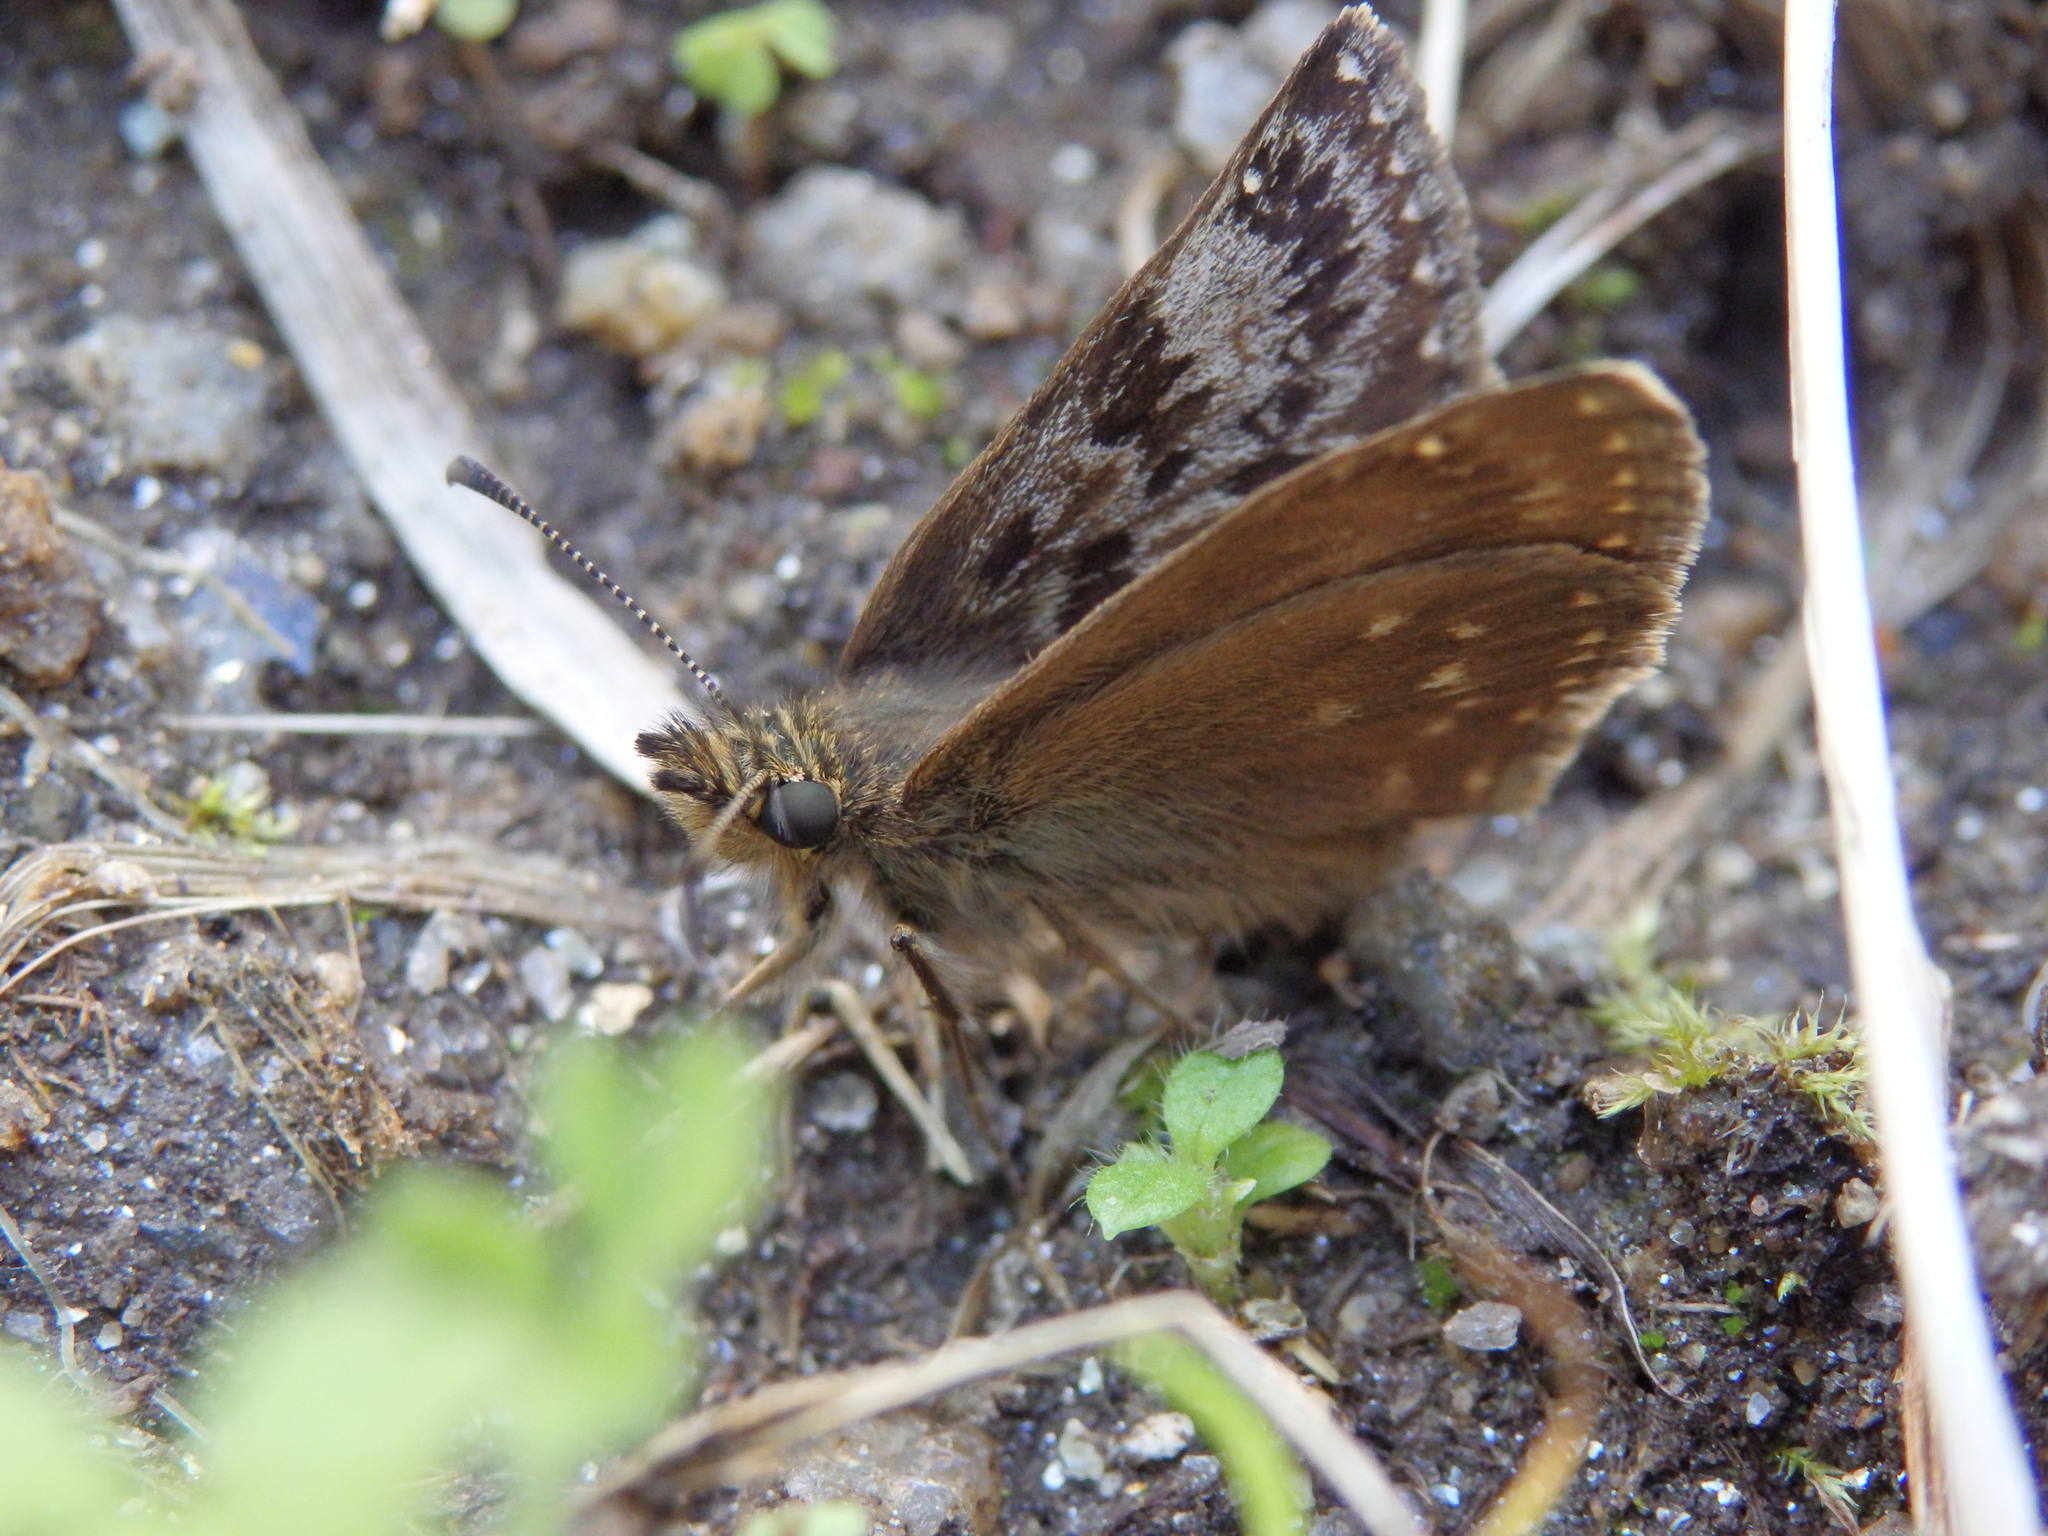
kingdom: Animalia
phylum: Arthropoda
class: Insecta
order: Lepidoptera
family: Hesperiidae
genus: Erynnis
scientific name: Erynnis tages
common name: Dingy skipper
